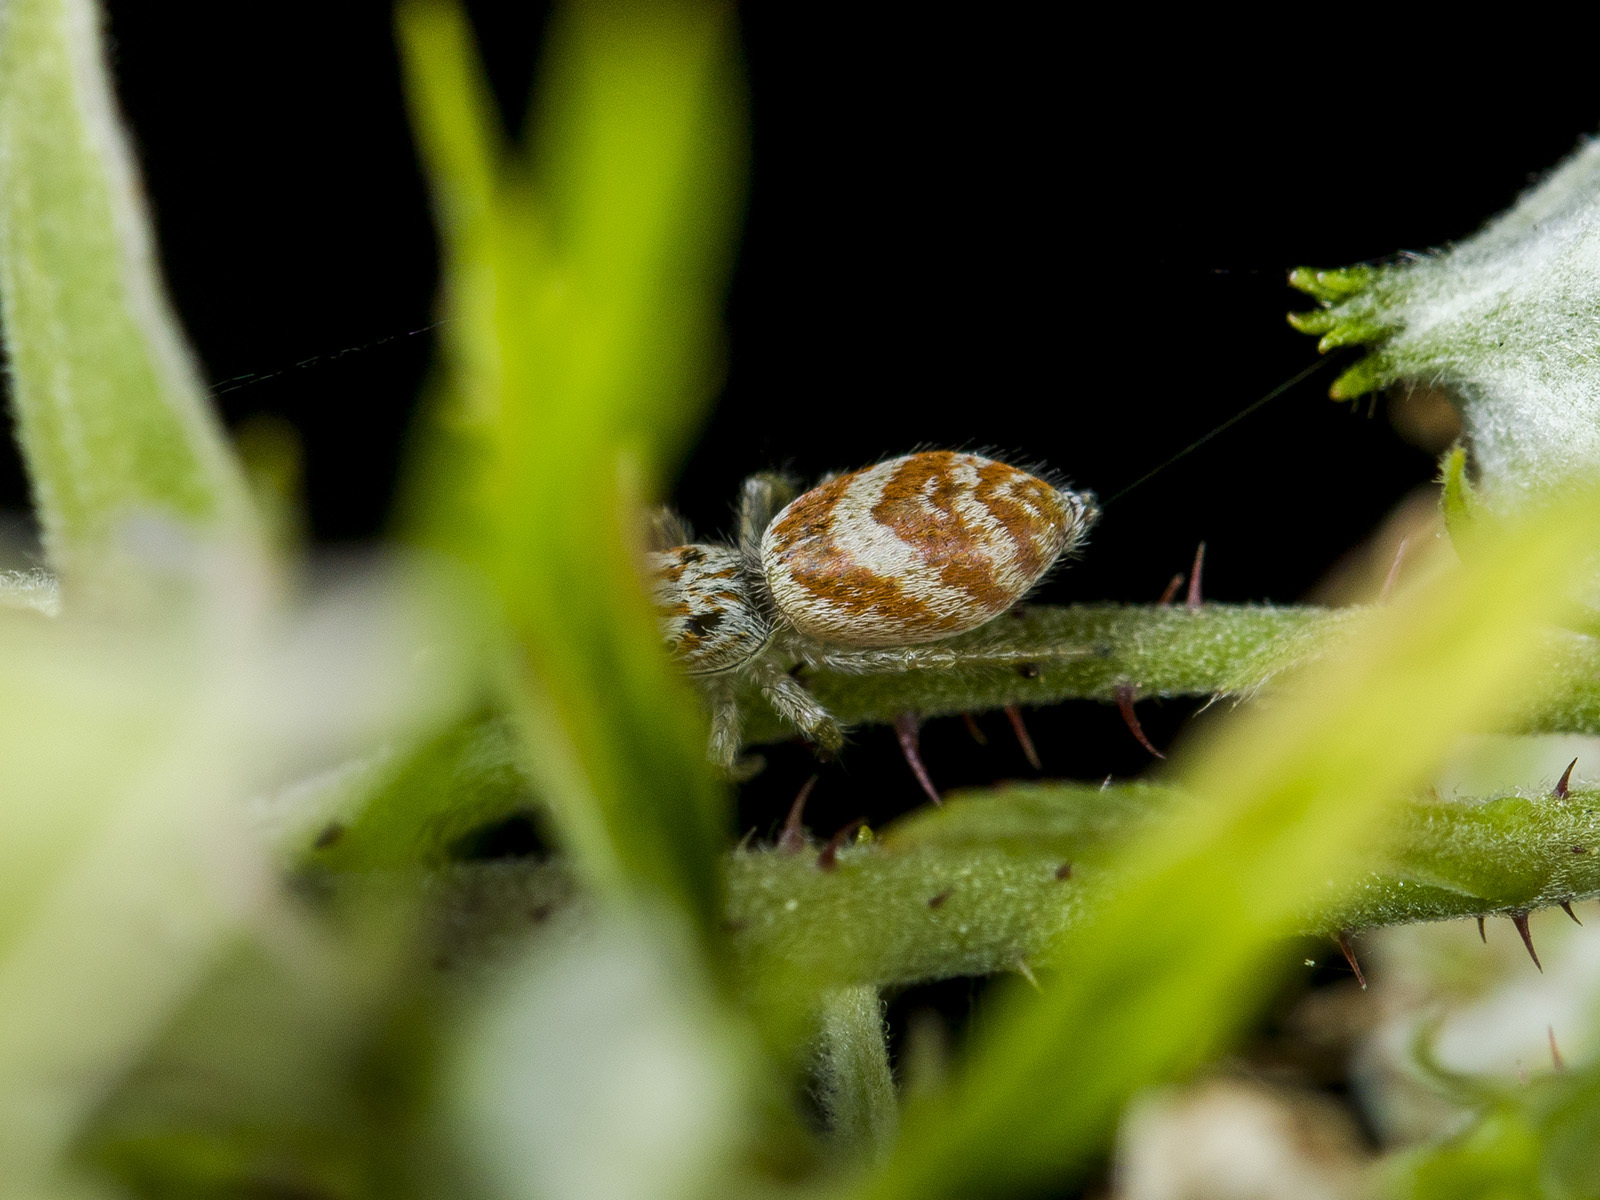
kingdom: Animalia
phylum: Arthropoda
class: Arachnida
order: Araneae
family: Salticidae
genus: Rudakius
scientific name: Rudakius cinctus
